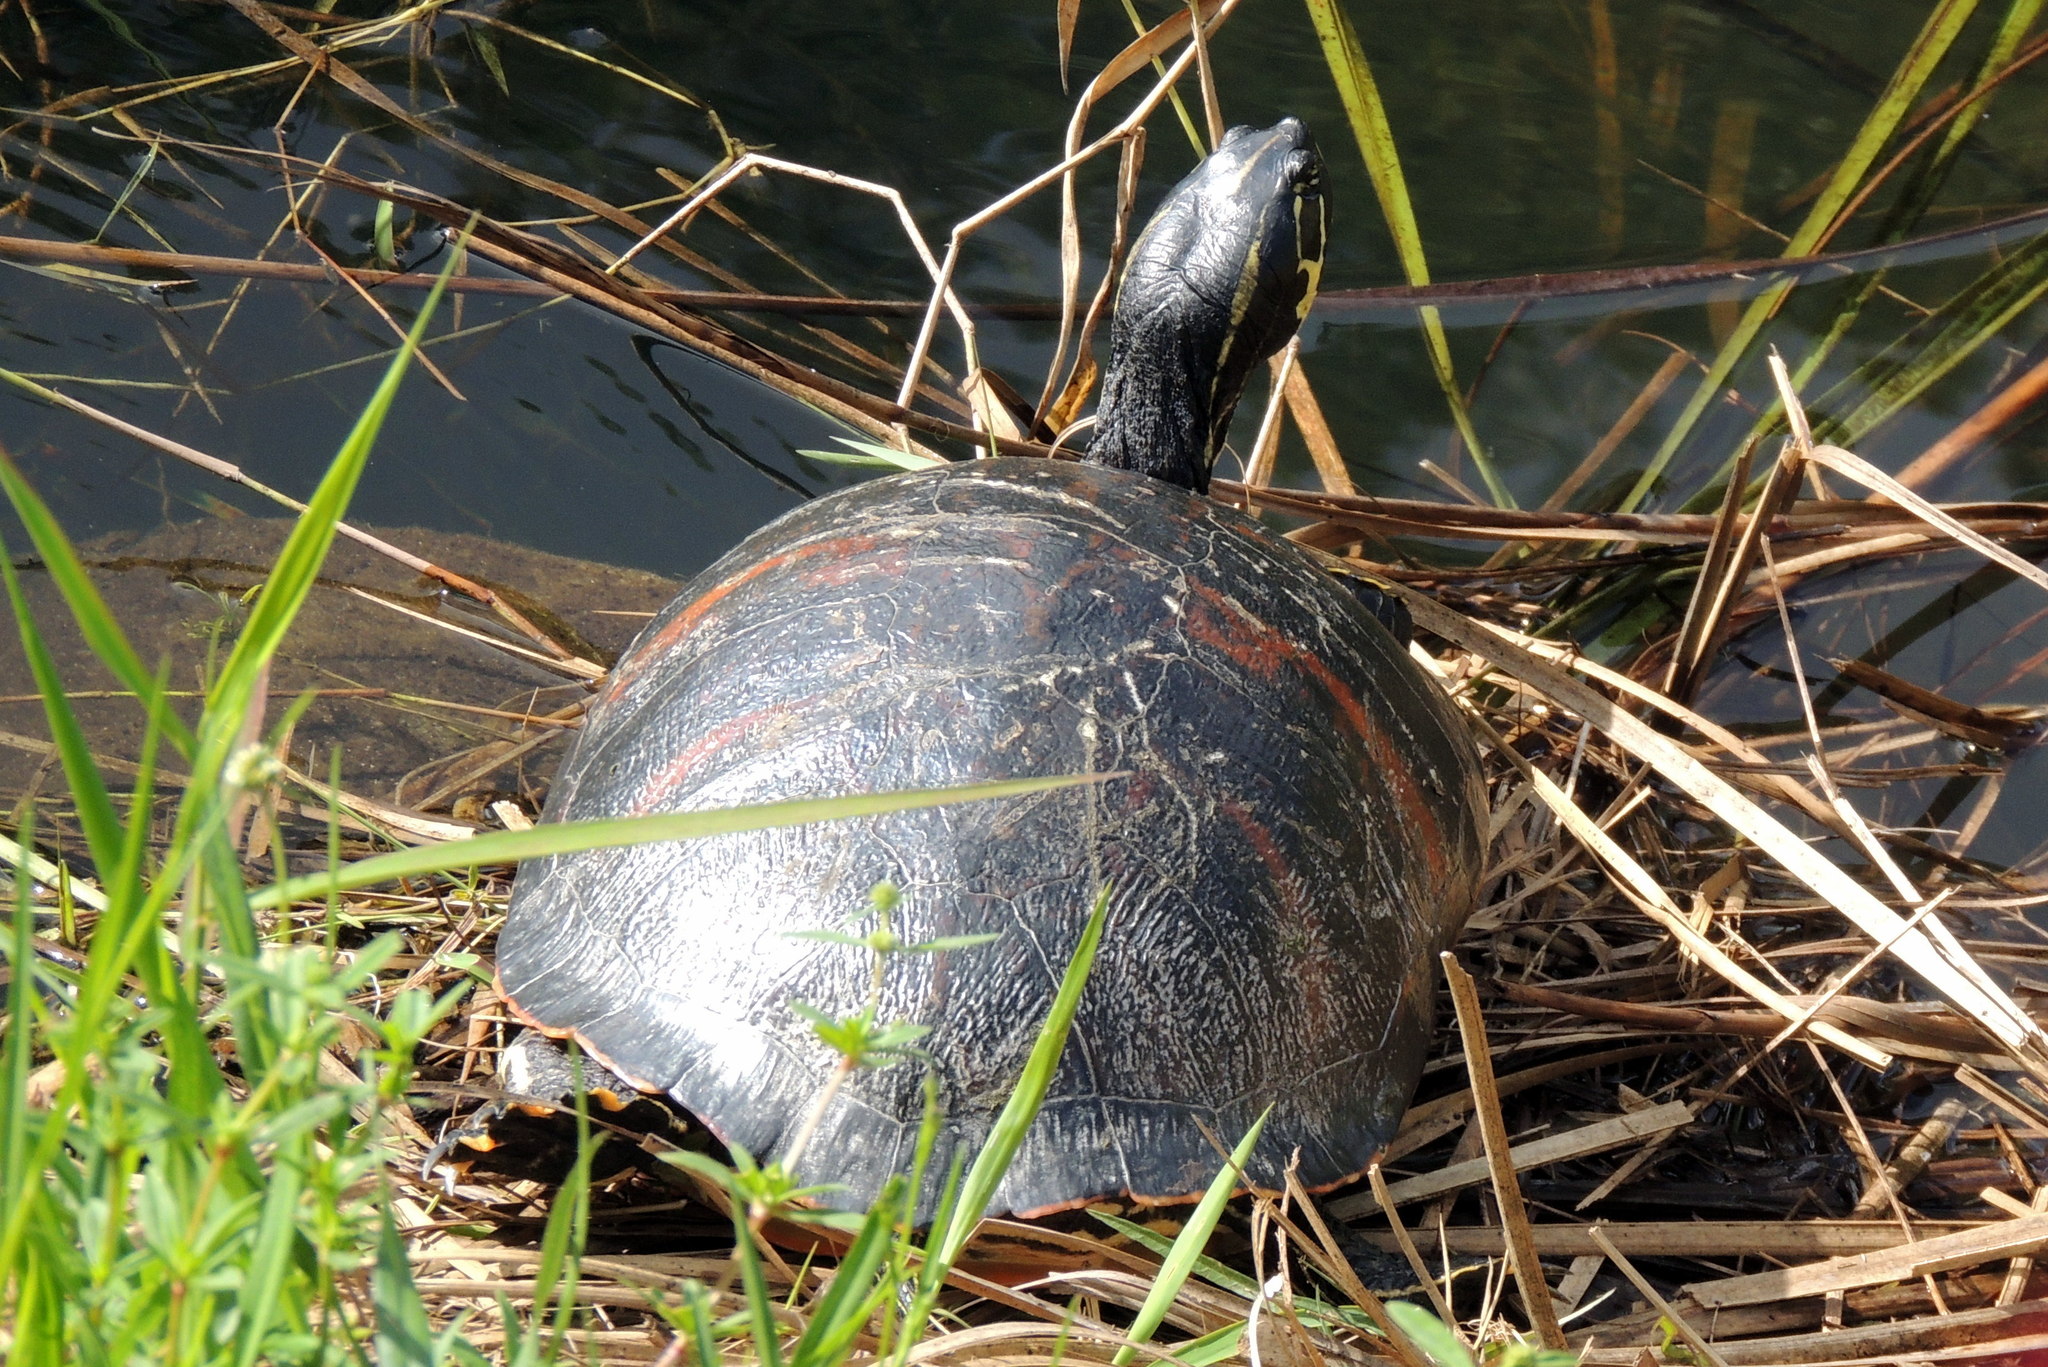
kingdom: Animalia
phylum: Chordata
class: Testudines
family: Emydidae
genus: Pseudemys
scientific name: Pseudemys nelsoni
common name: Florida red-bellied turtle
